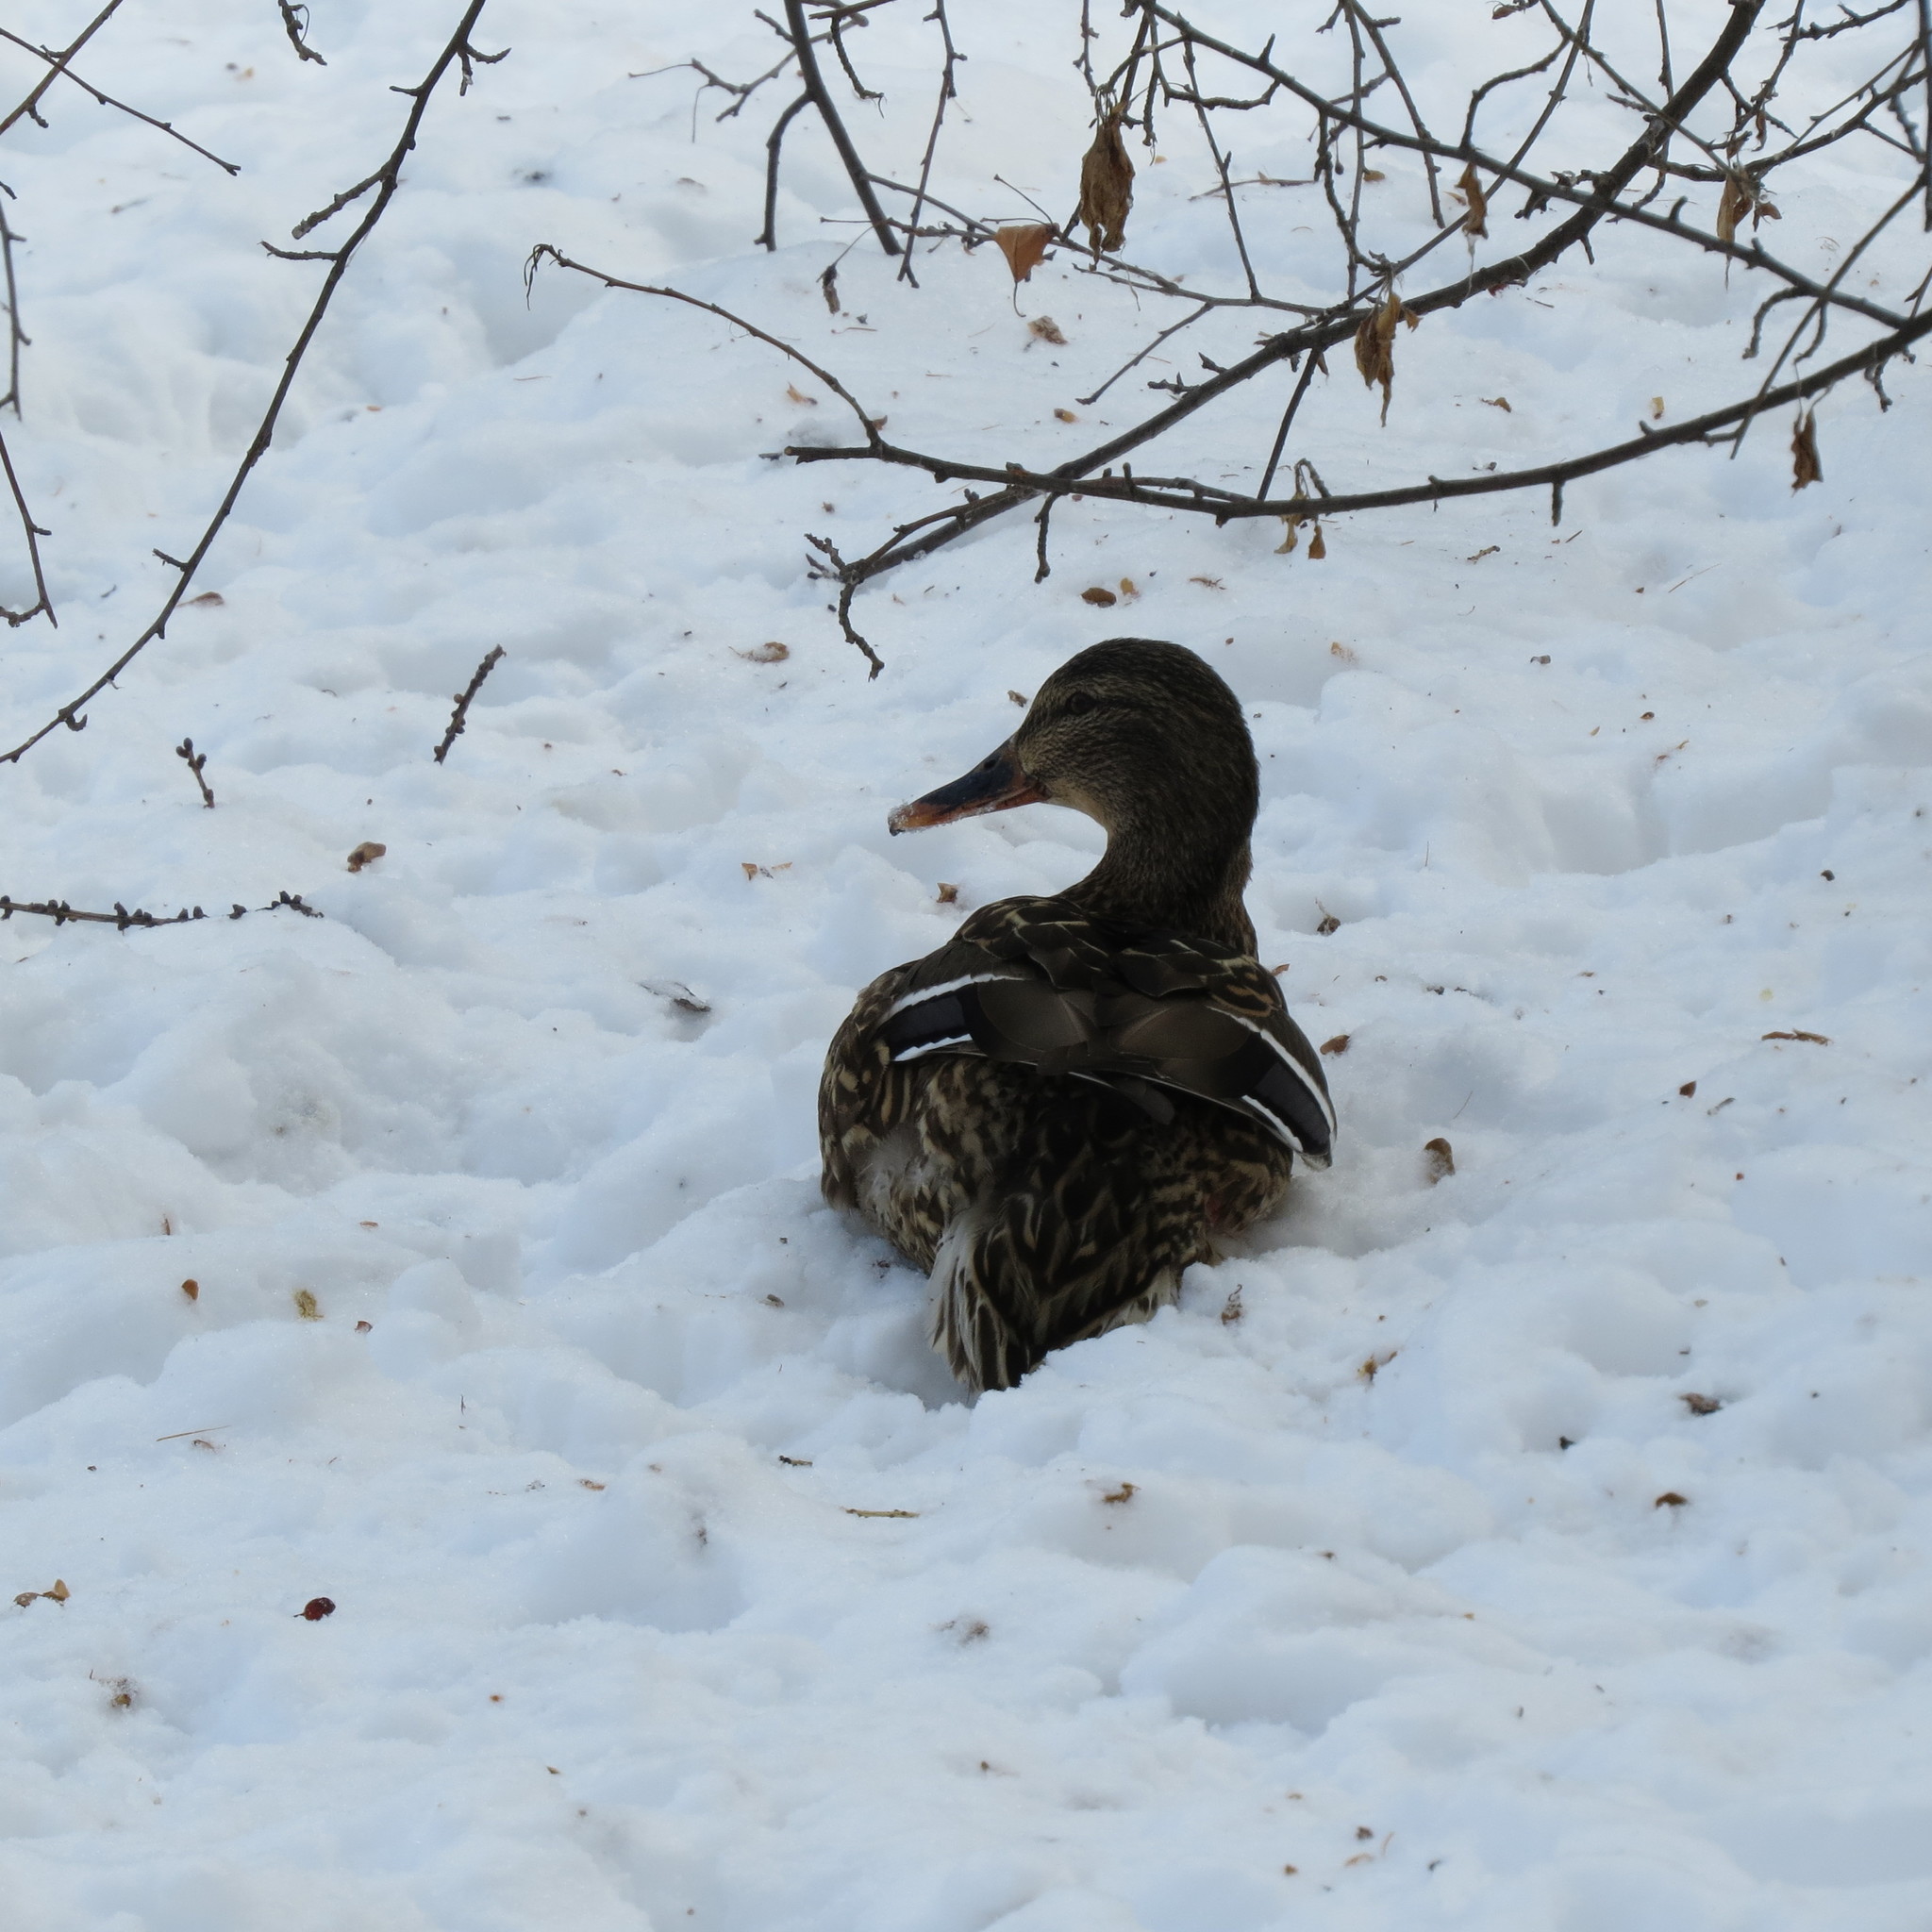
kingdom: Animalia
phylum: Chordata
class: Aves
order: Anseriformes
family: Anatidae
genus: Anas
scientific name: Anas platyrhynchos
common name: Mallard
